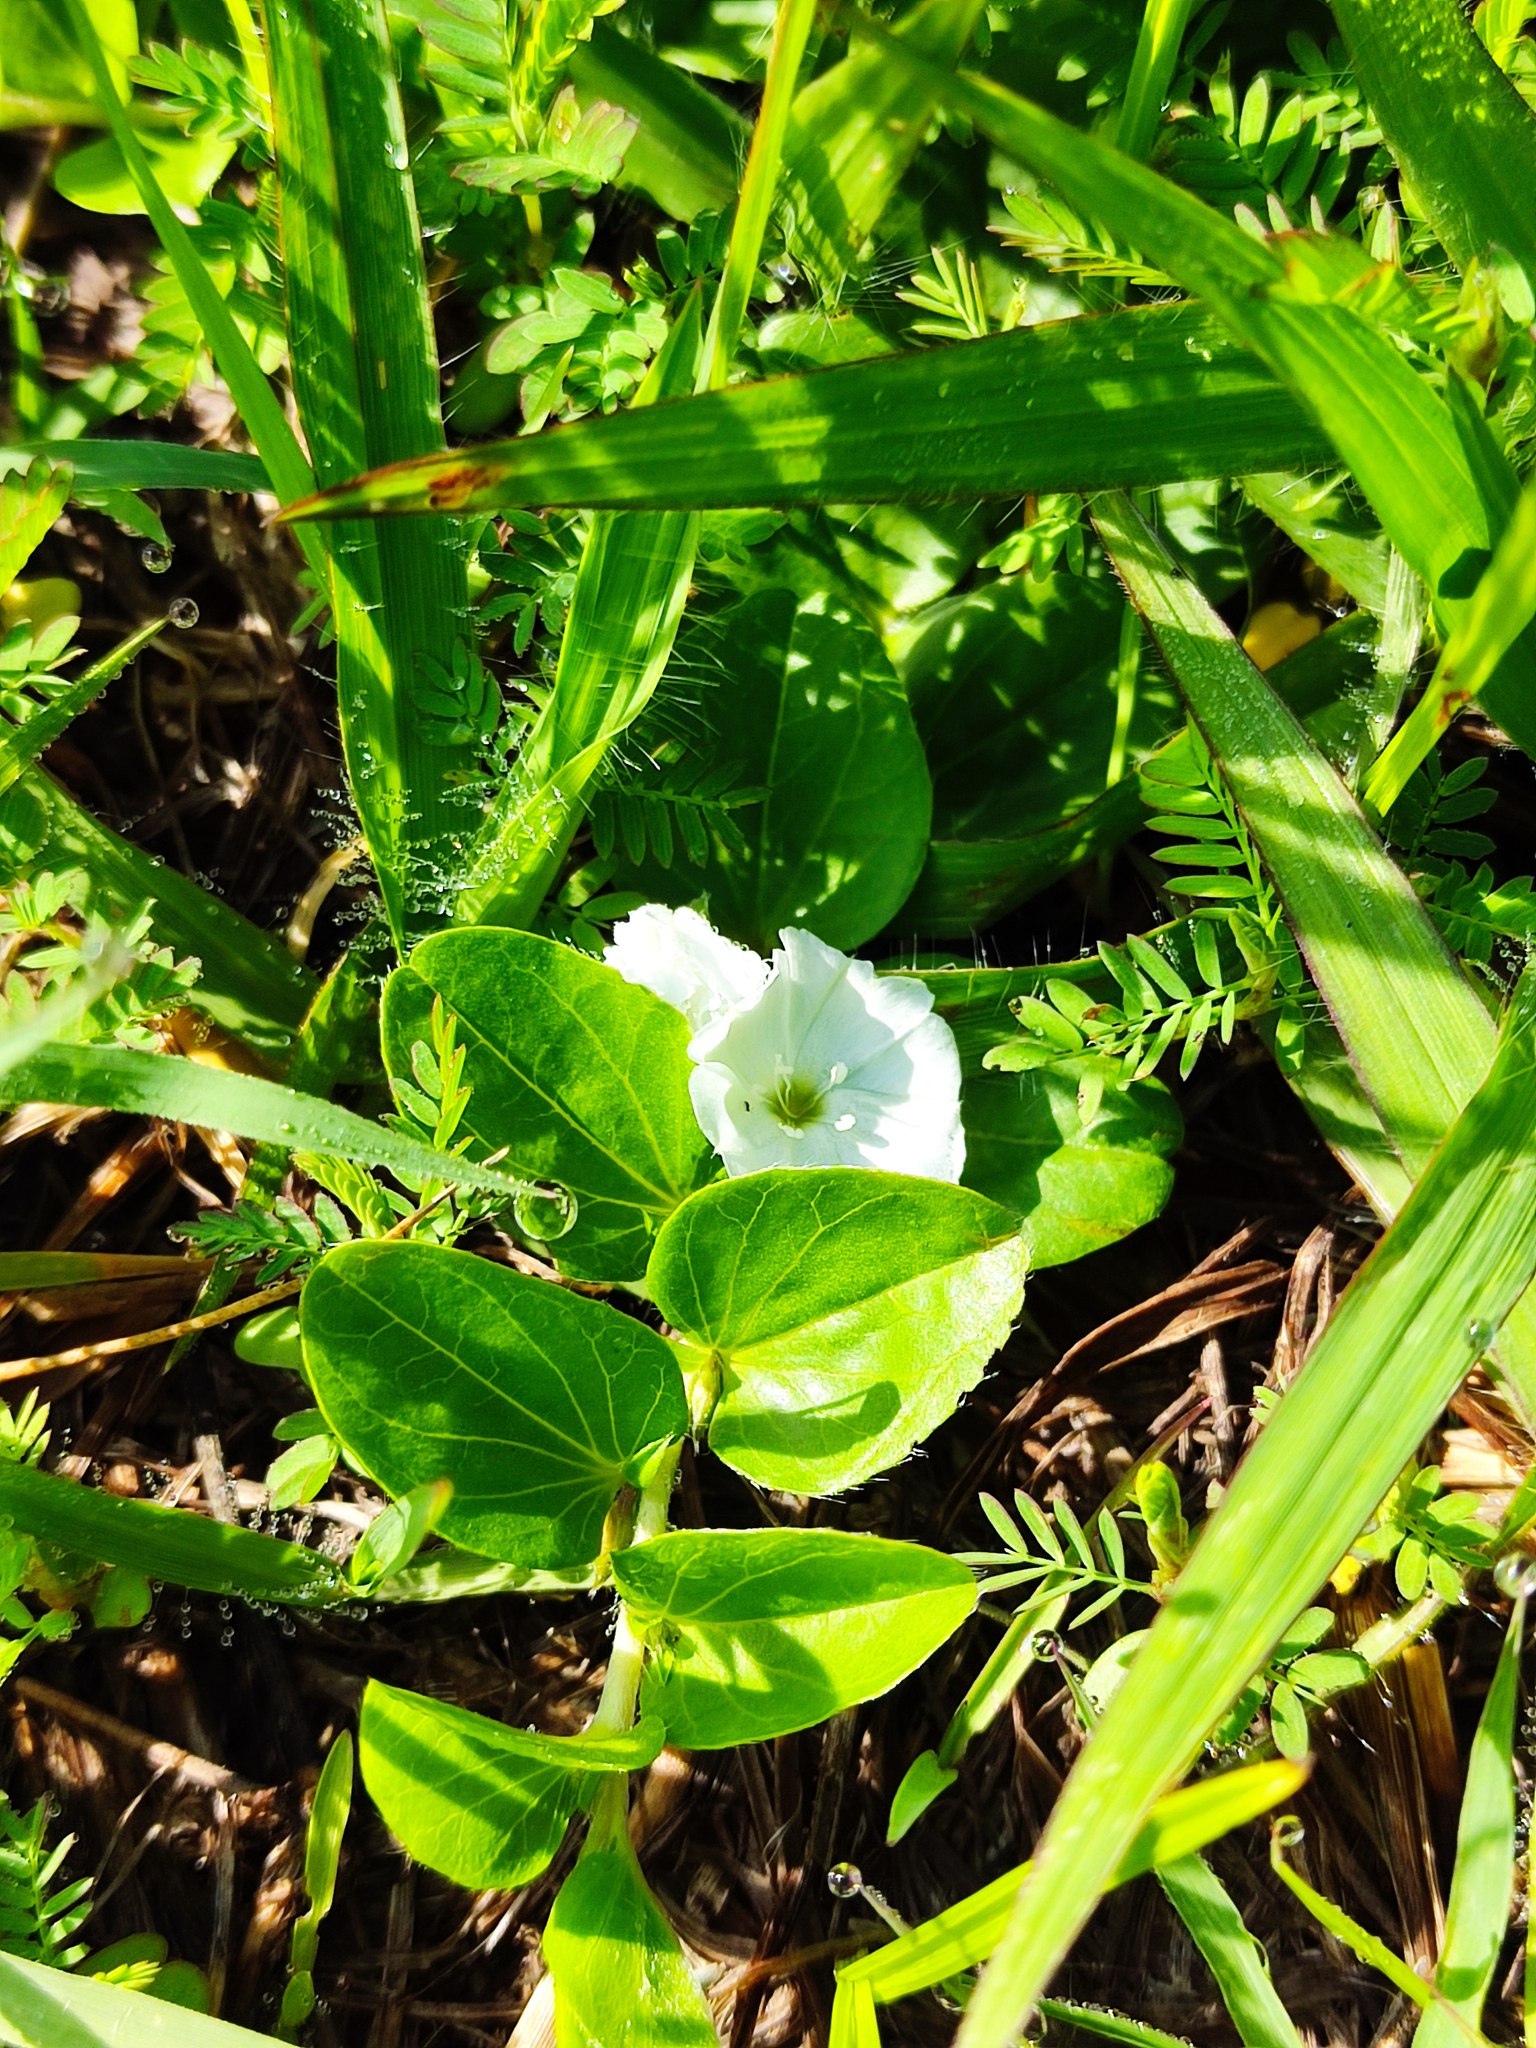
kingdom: Plantae
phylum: Tracheophyta
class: Magnoliopsida
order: Solanales
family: Convolvulaceae
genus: Evolvulus
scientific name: Evolvulus prostratus
